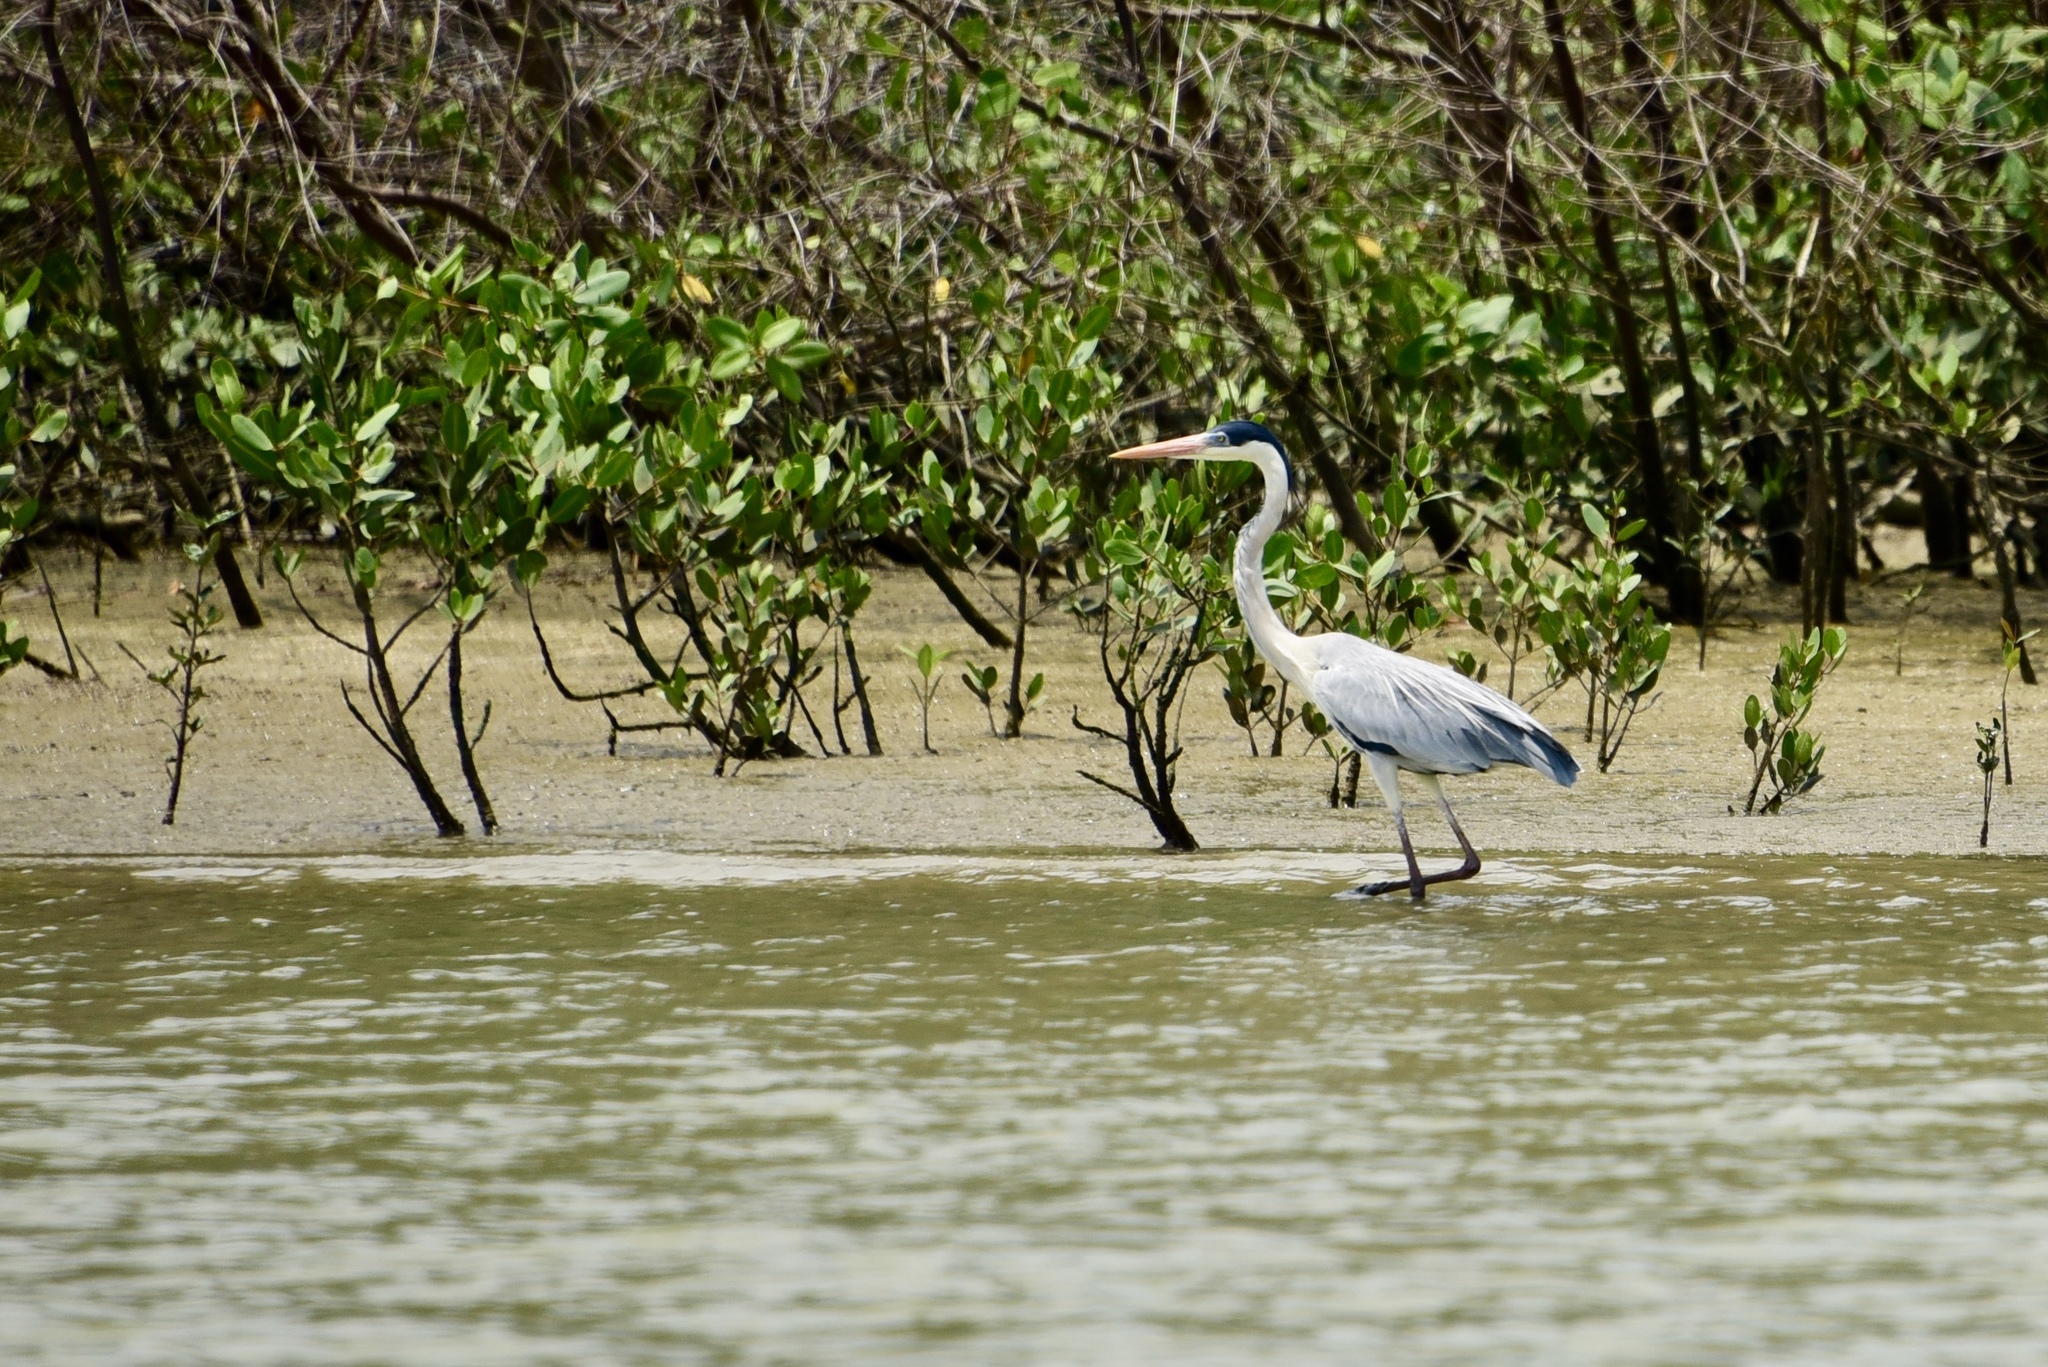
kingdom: Animalia
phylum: Chordata
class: Aves
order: Pelecaniformes
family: Ardeidae
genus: Ardea
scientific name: Ardea cocoi
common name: Cocoi heron
